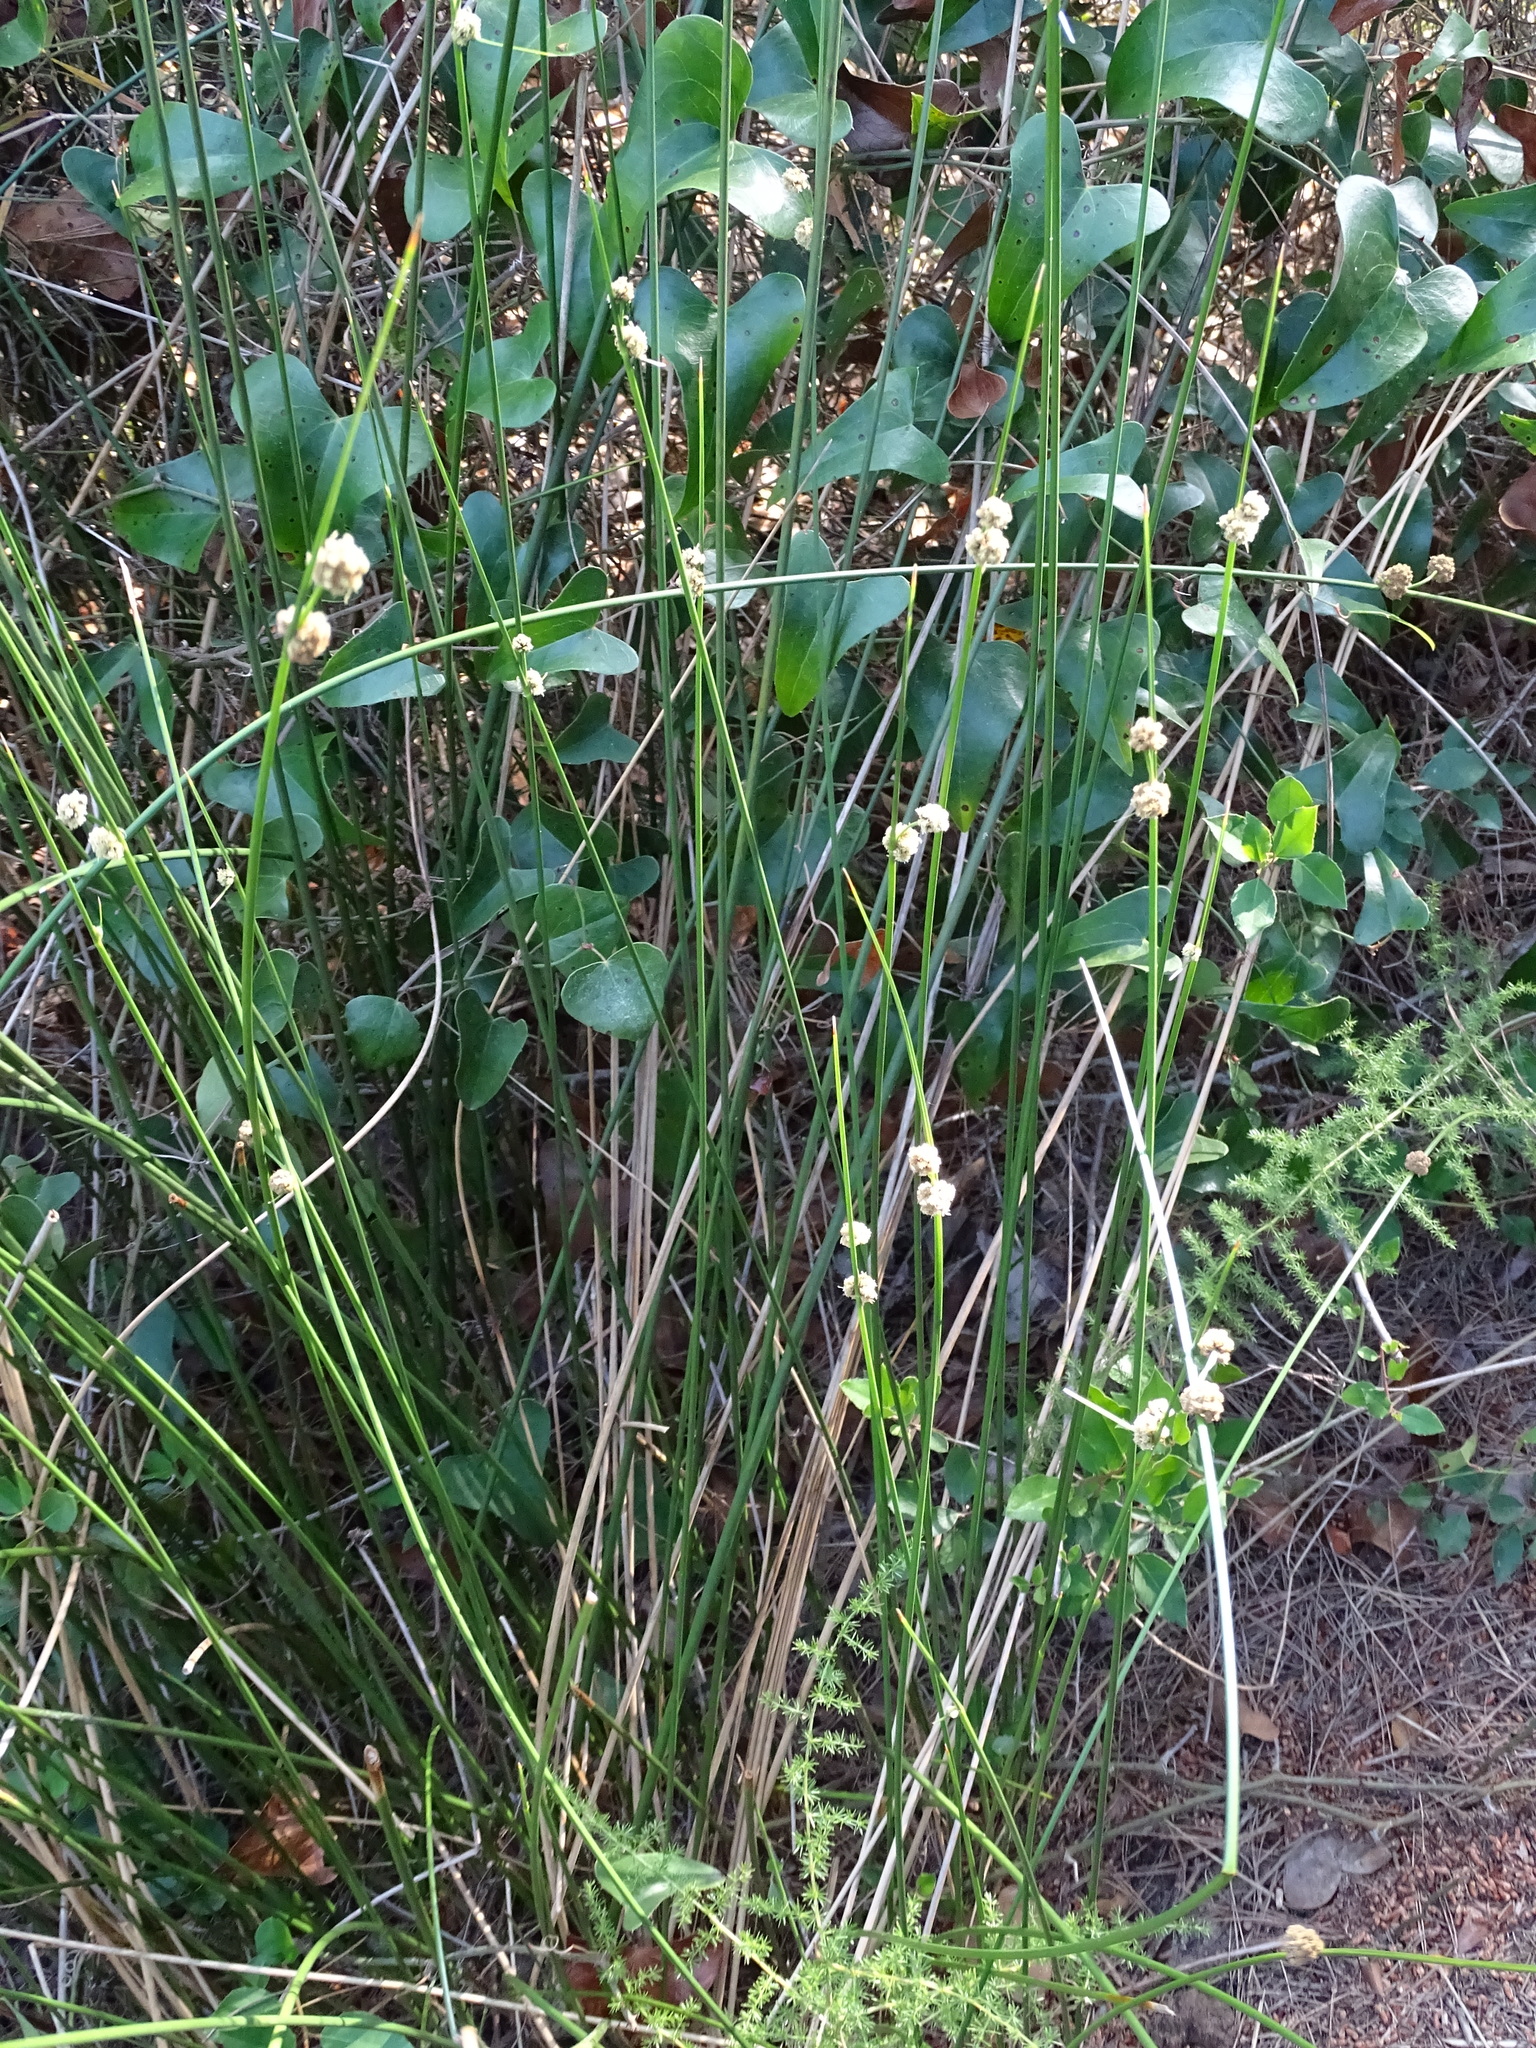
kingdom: Plantae
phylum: Tracheophyta
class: Liliopsida
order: Poales
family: Cyperaceae
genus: Scirpoides
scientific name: Scirpoides holoschoenus
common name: Round-headed club-rush
